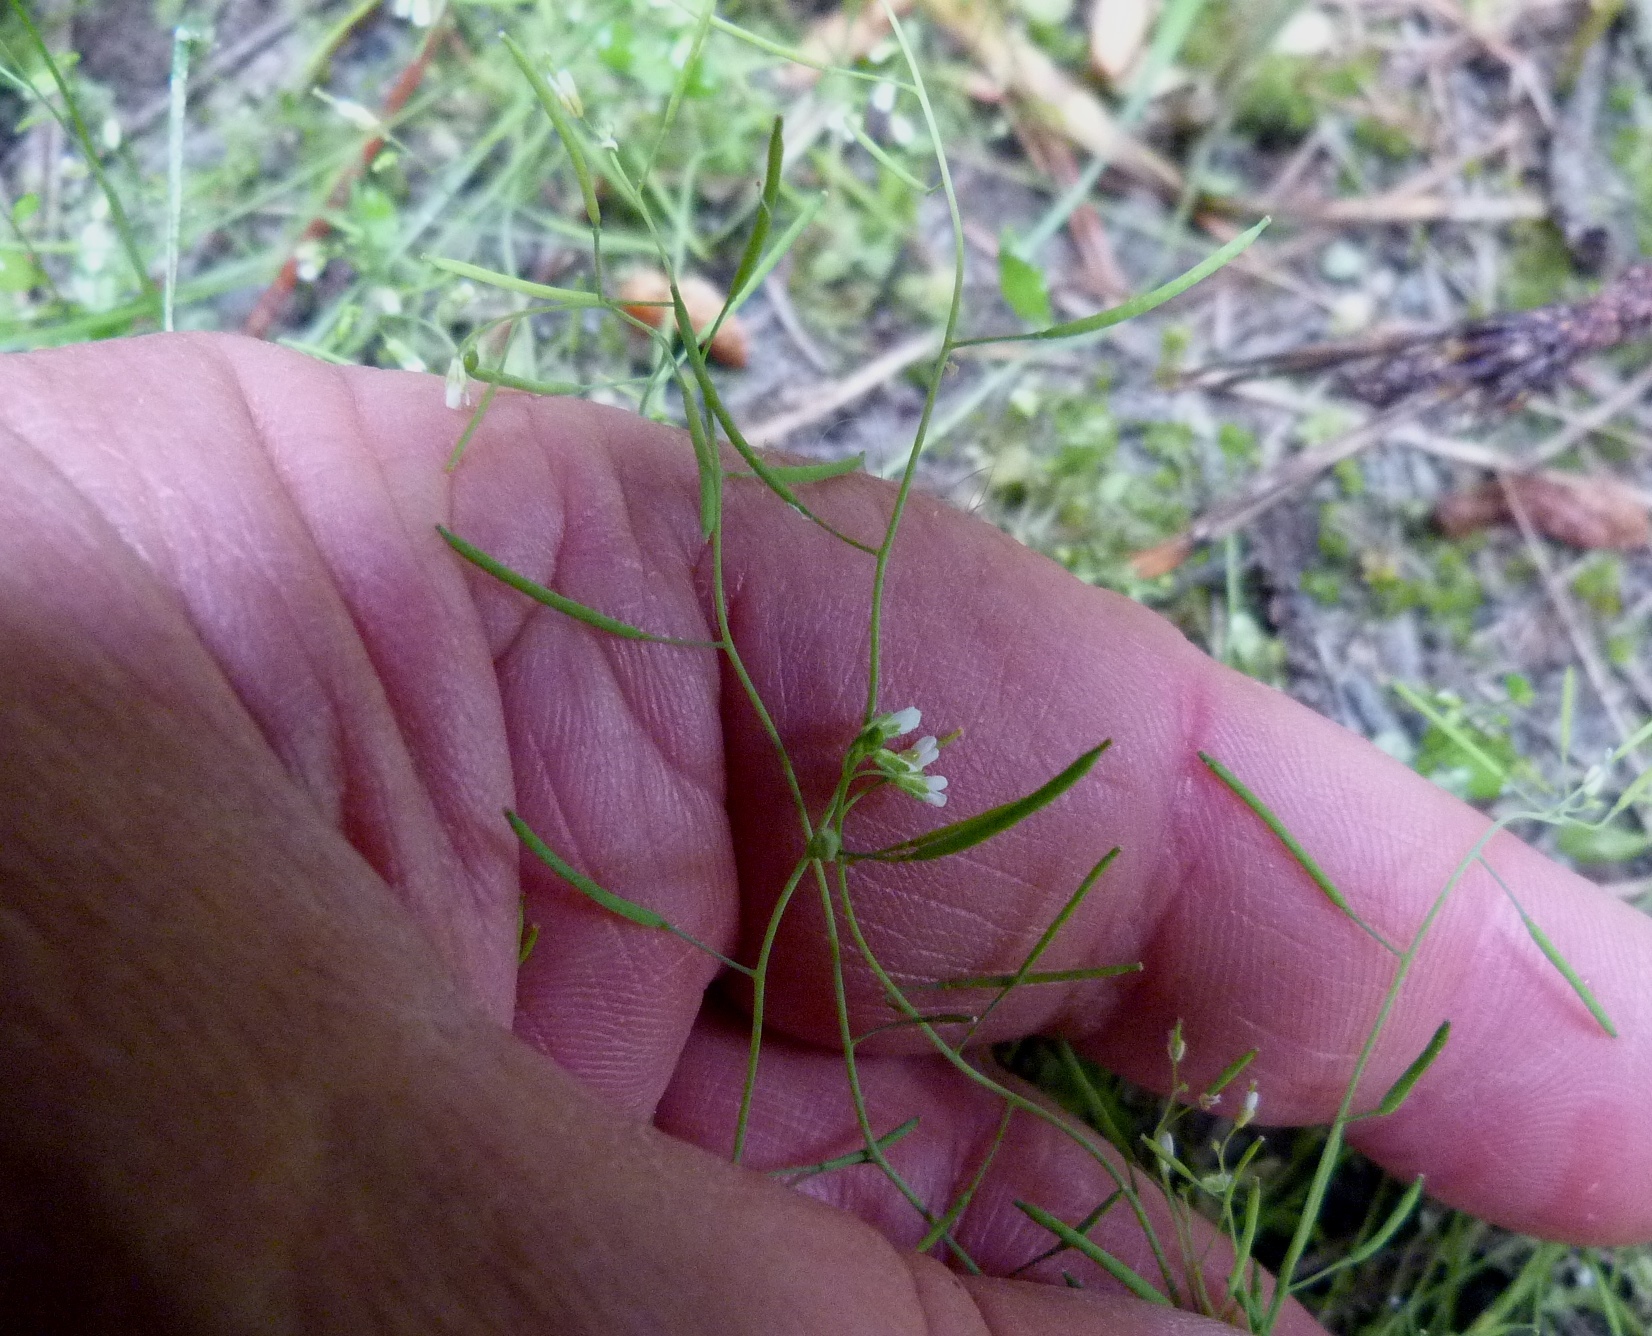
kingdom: Plantae
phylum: Tracheophyta
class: Magnoliopsida
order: Brassicales
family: Brassicaceae
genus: Arabidopsis
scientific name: Arabidopsis thaliana
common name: Thale cress
